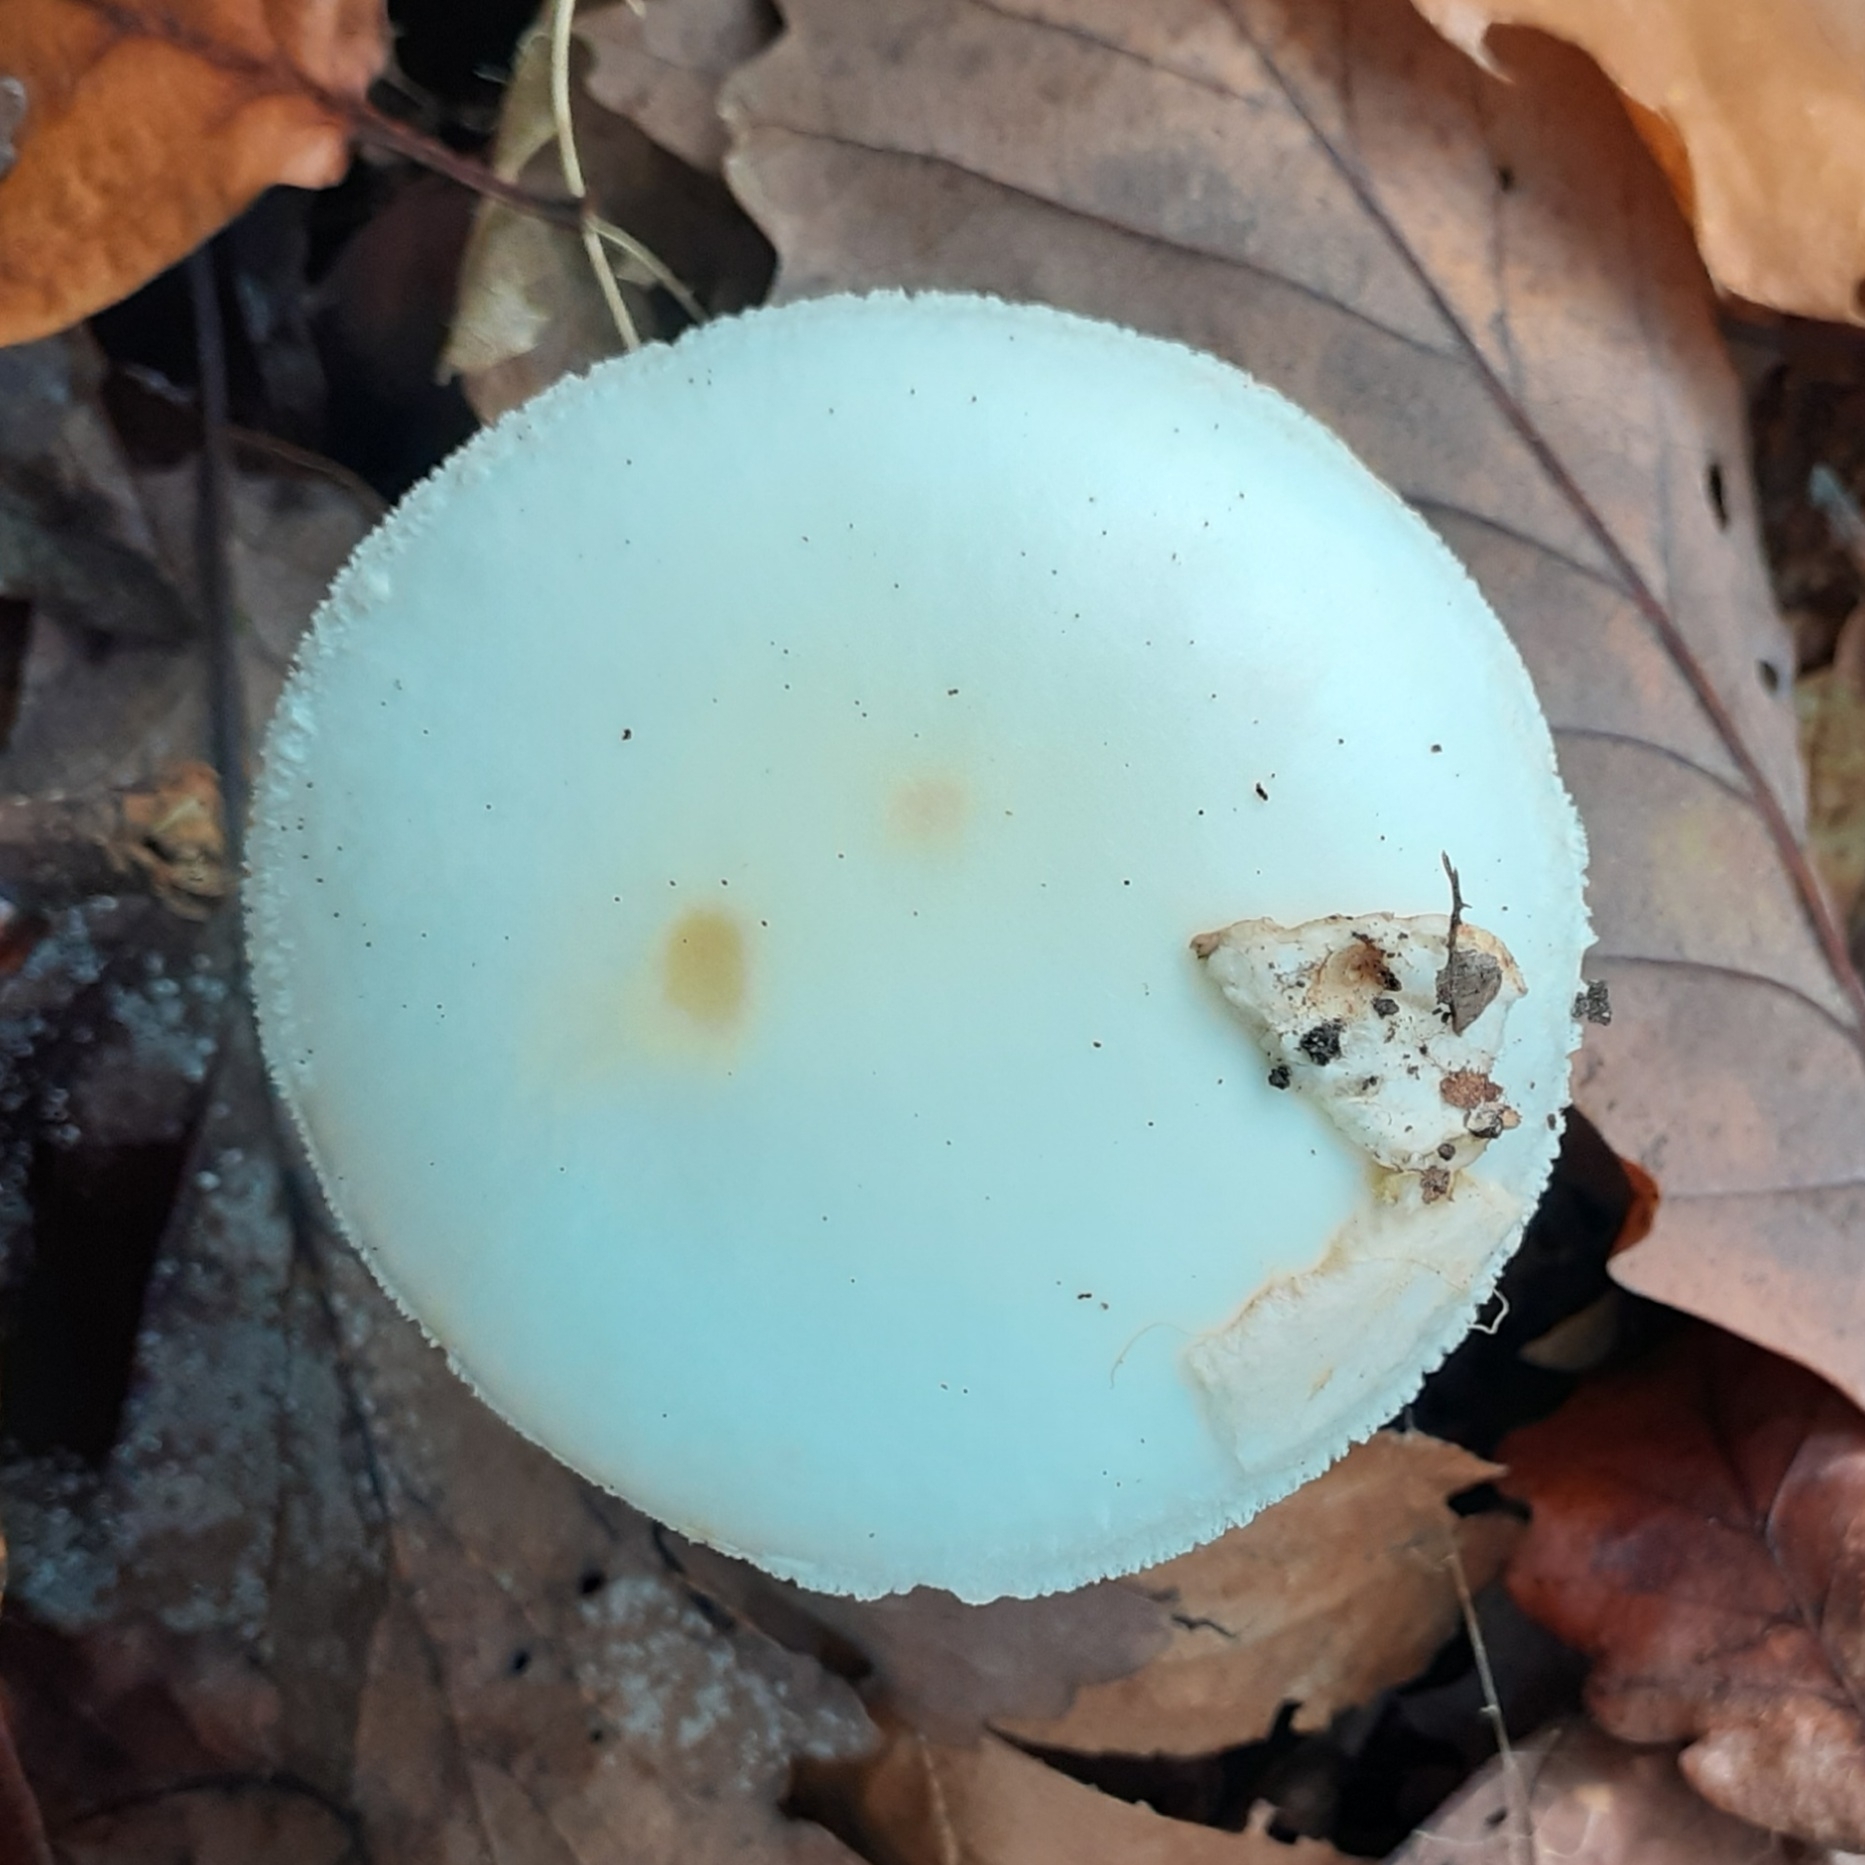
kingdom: Fungi
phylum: Basidiomycota
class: Agaricomycetes
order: Agaricales
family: Amanitaceae
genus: Amanita
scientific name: Amanita citrina
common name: False death-cap
